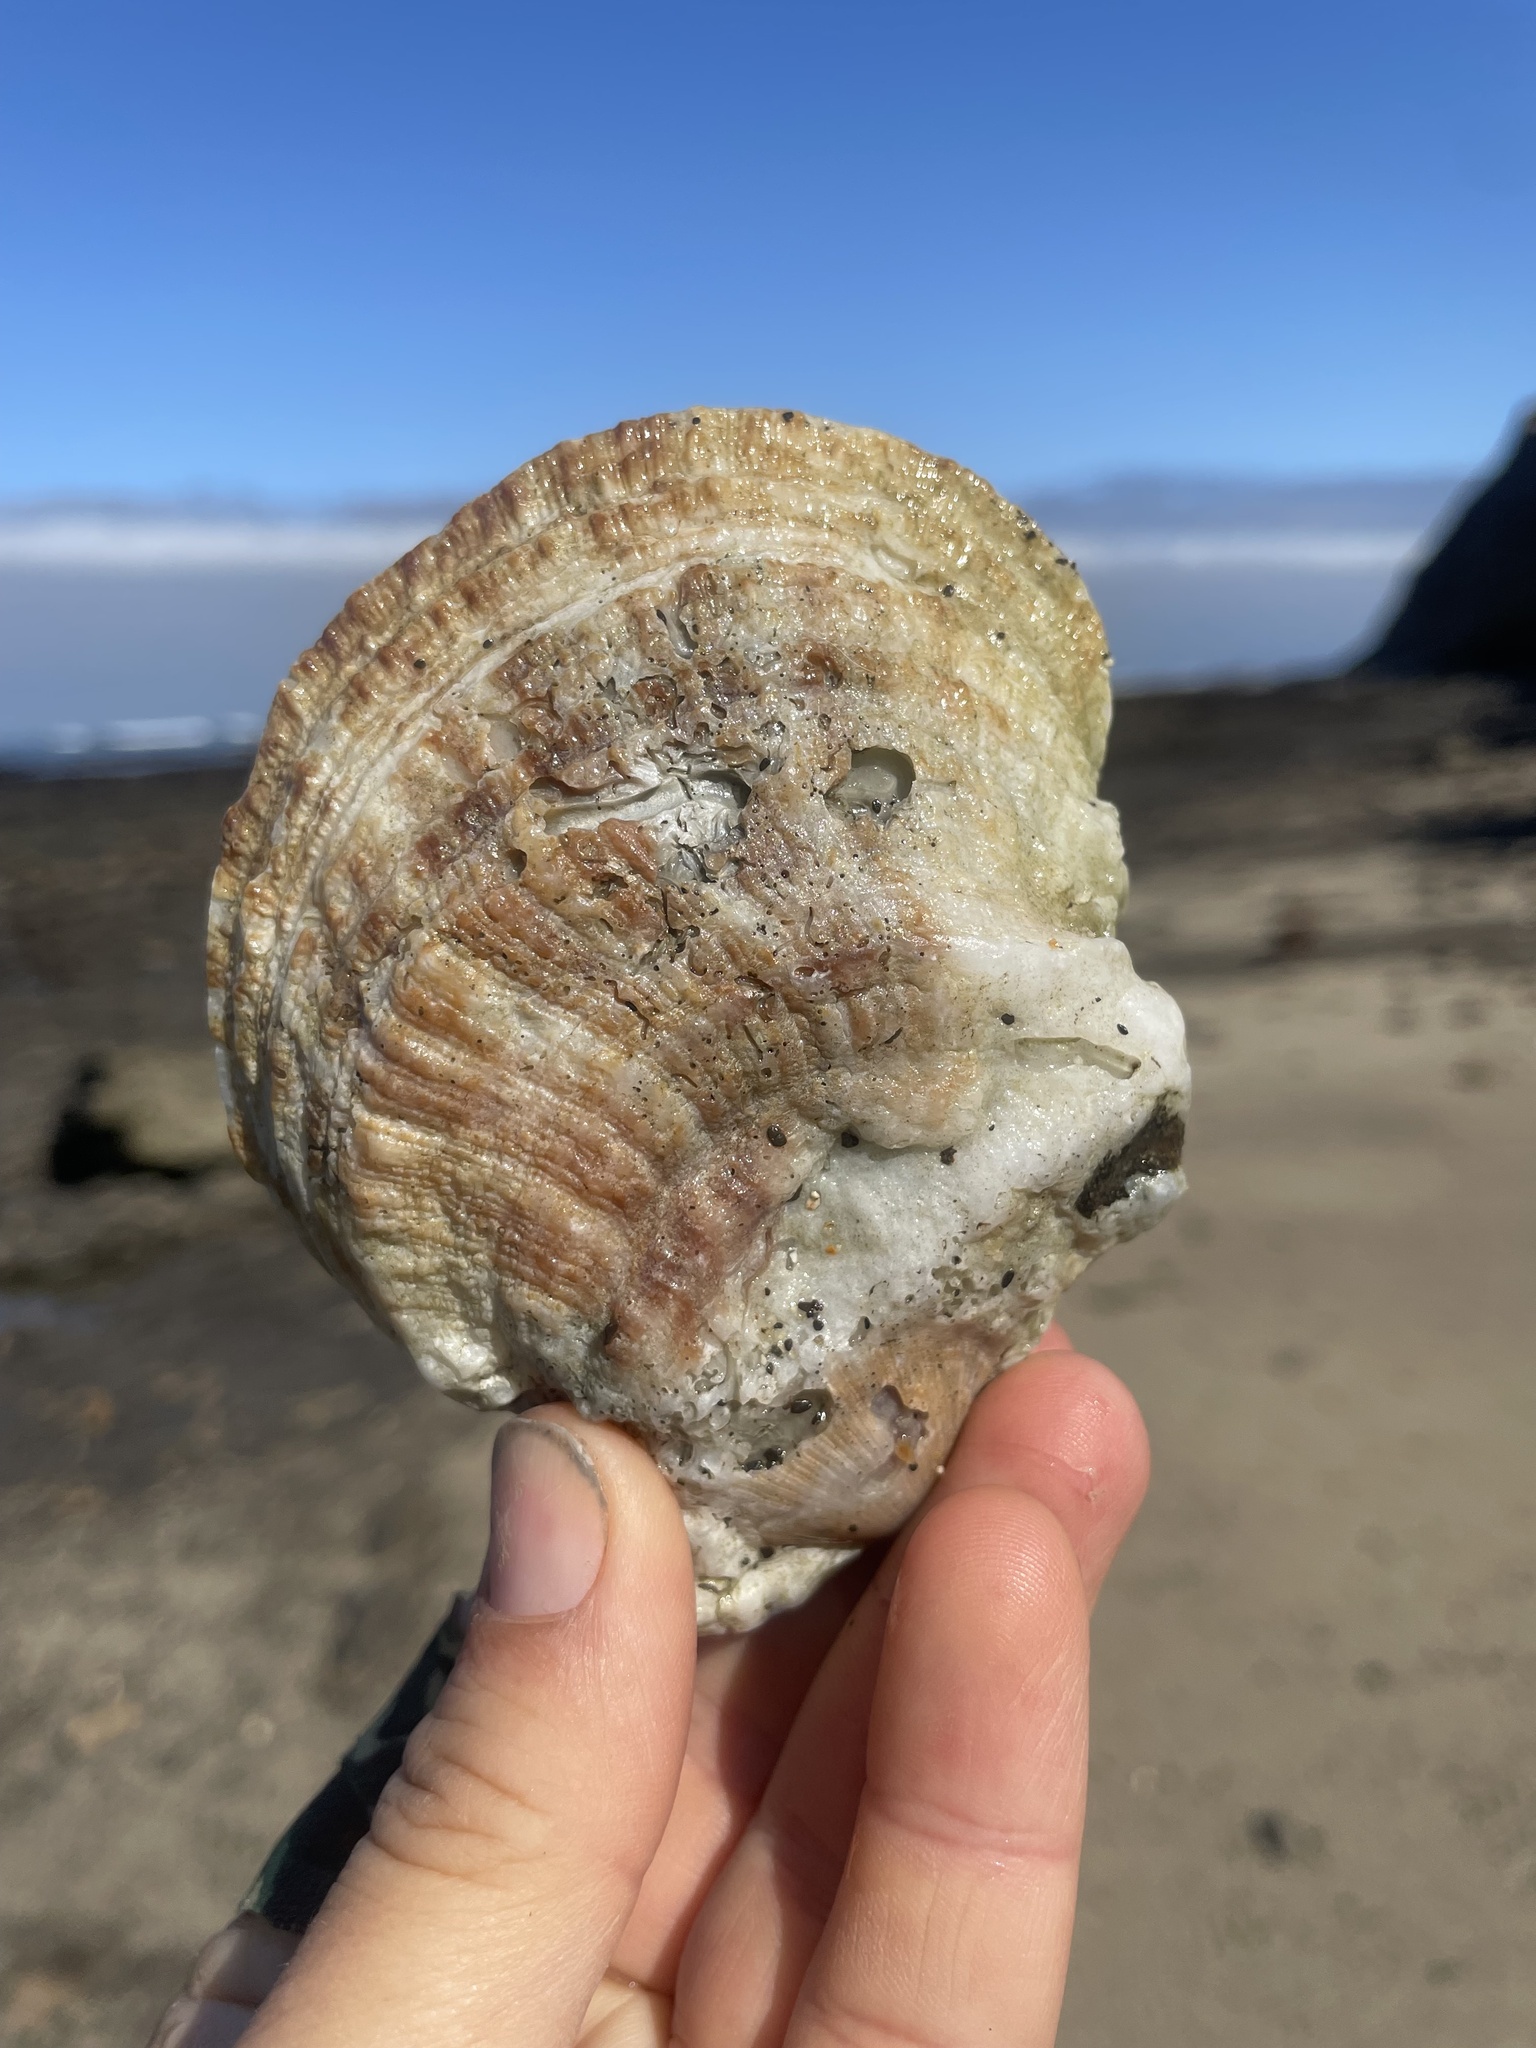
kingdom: Animalia
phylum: Mollusca
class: Bivalvia
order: Pectinida
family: Pectinidae
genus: Crassadoma
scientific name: Crassadoma gigantea
